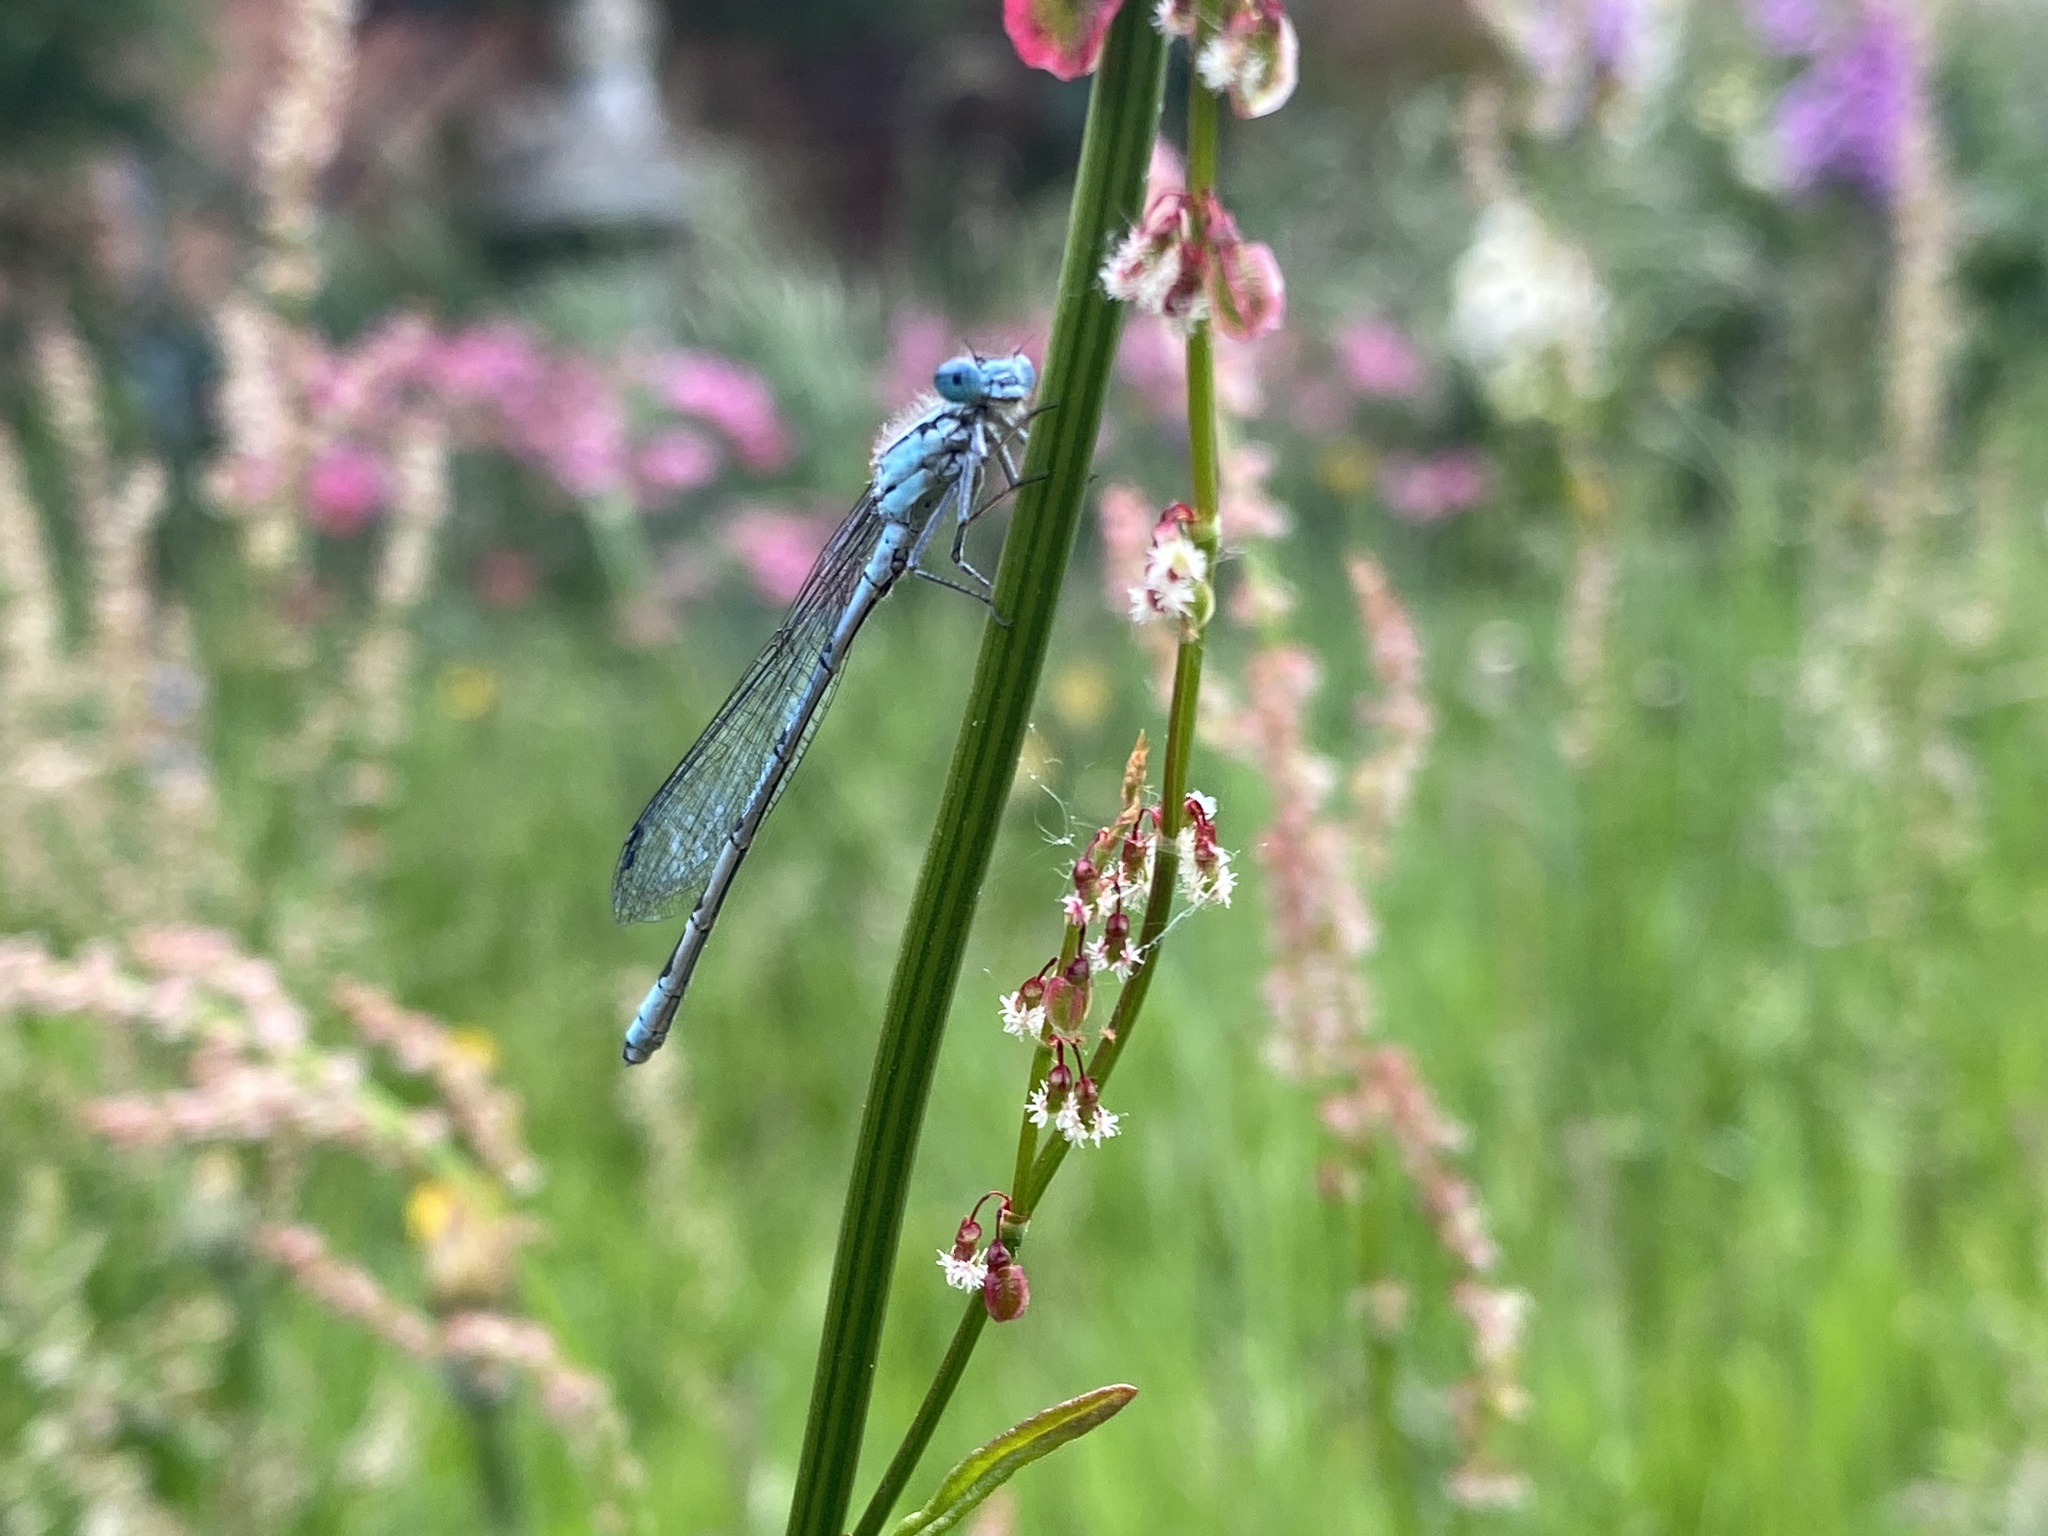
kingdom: Animalia
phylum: Arthropoda
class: Insecta
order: Odonata
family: Coenagrionidae
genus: Enallagma
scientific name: Enallagma cyathigerum
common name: Common blue damselfly
